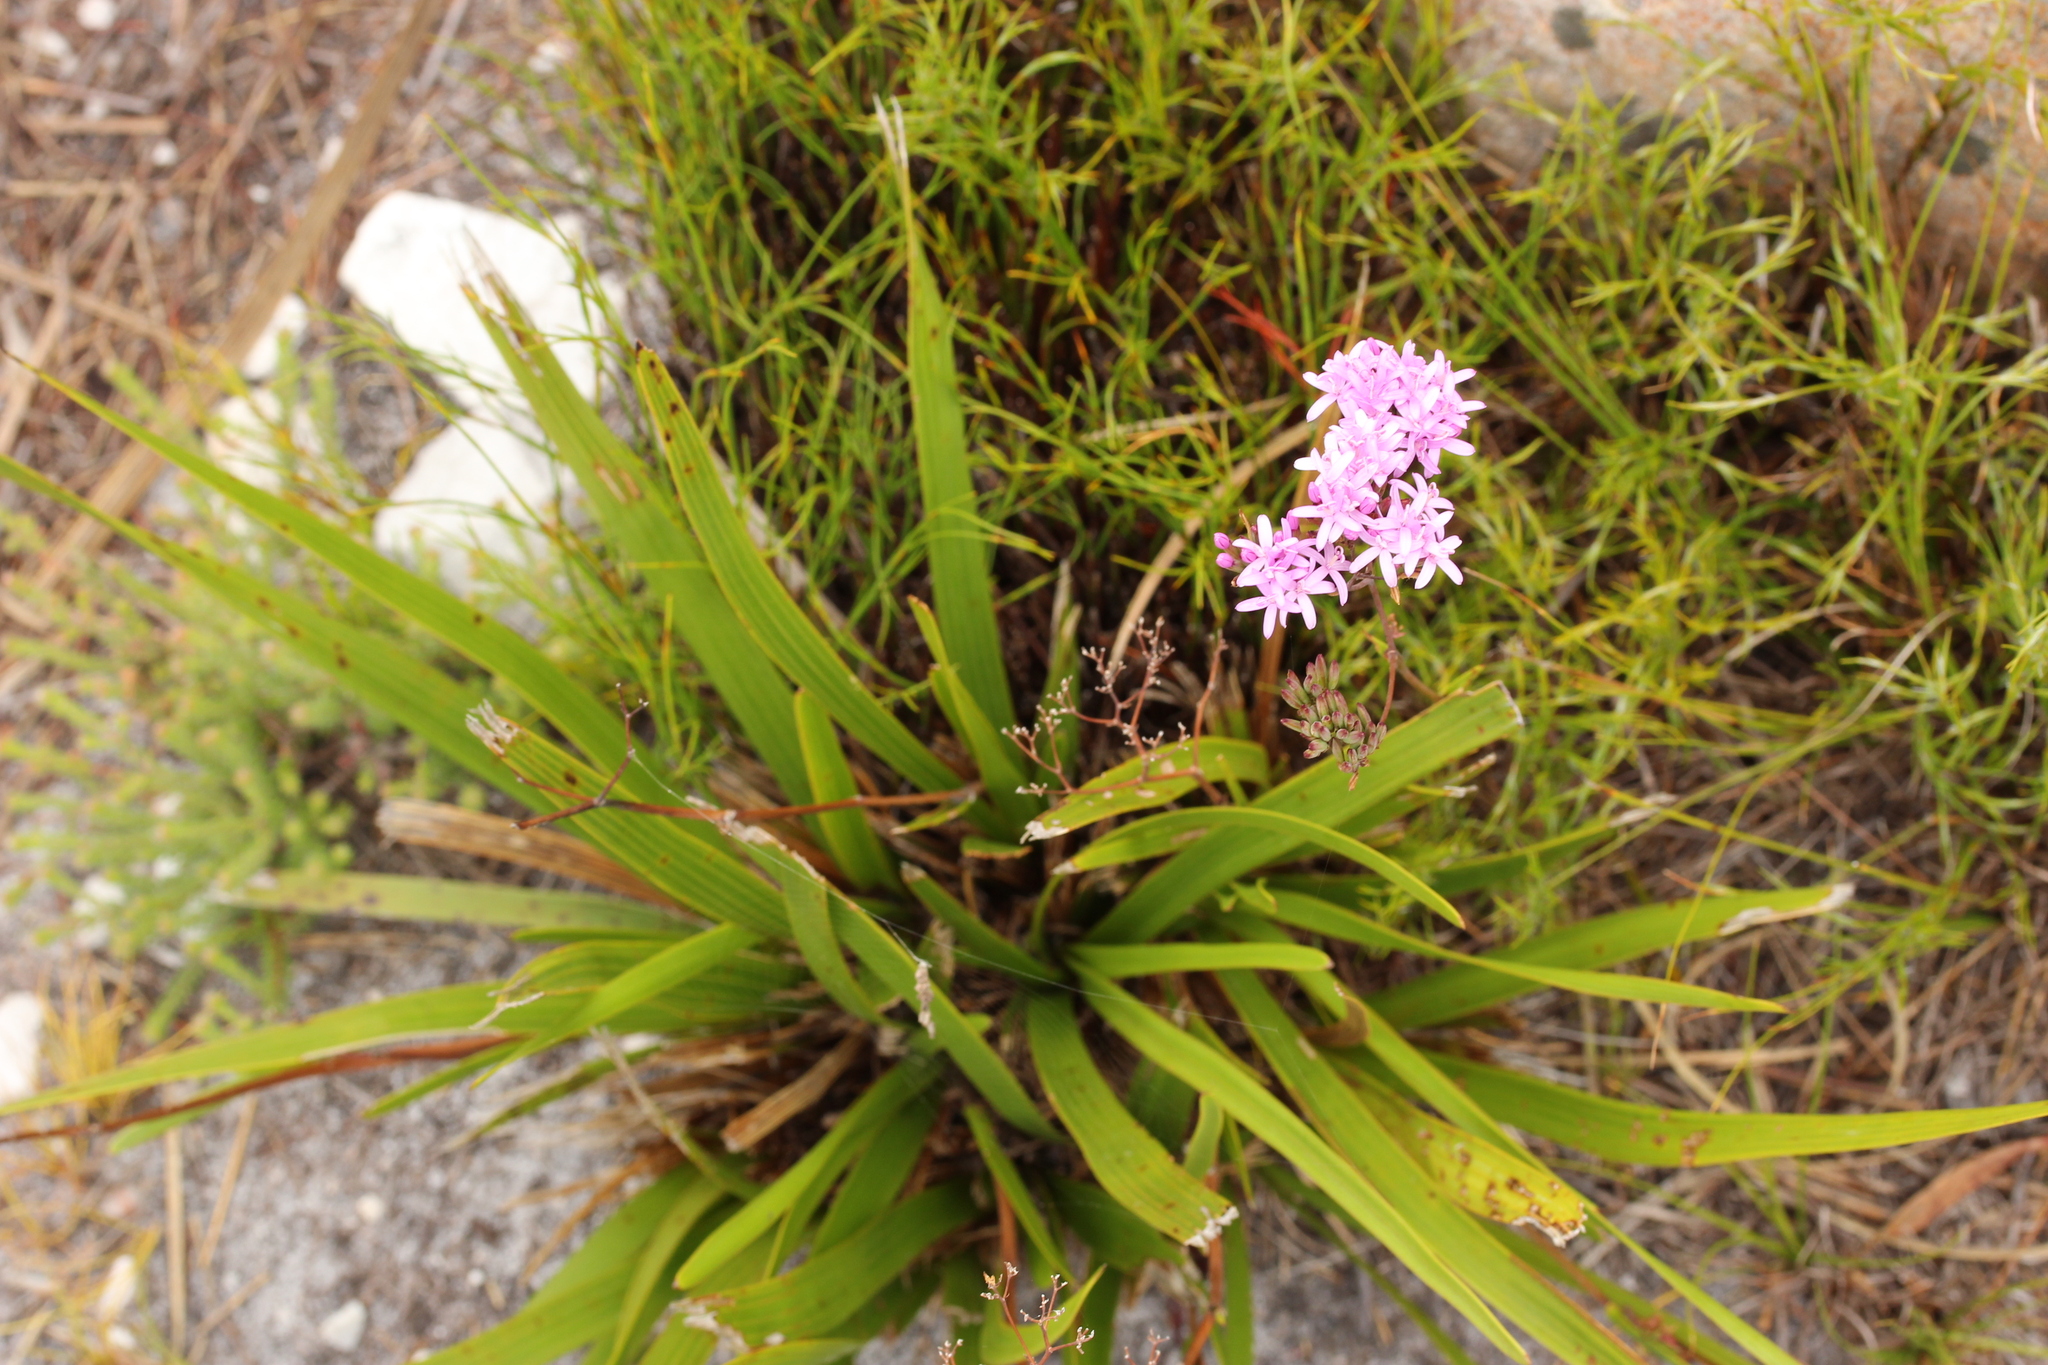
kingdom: Plantae
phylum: Tracheophyta
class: Magnoliopsida
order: Asterales
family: Asteraceae
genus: Corymbium
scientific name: Corymbium glabrum
